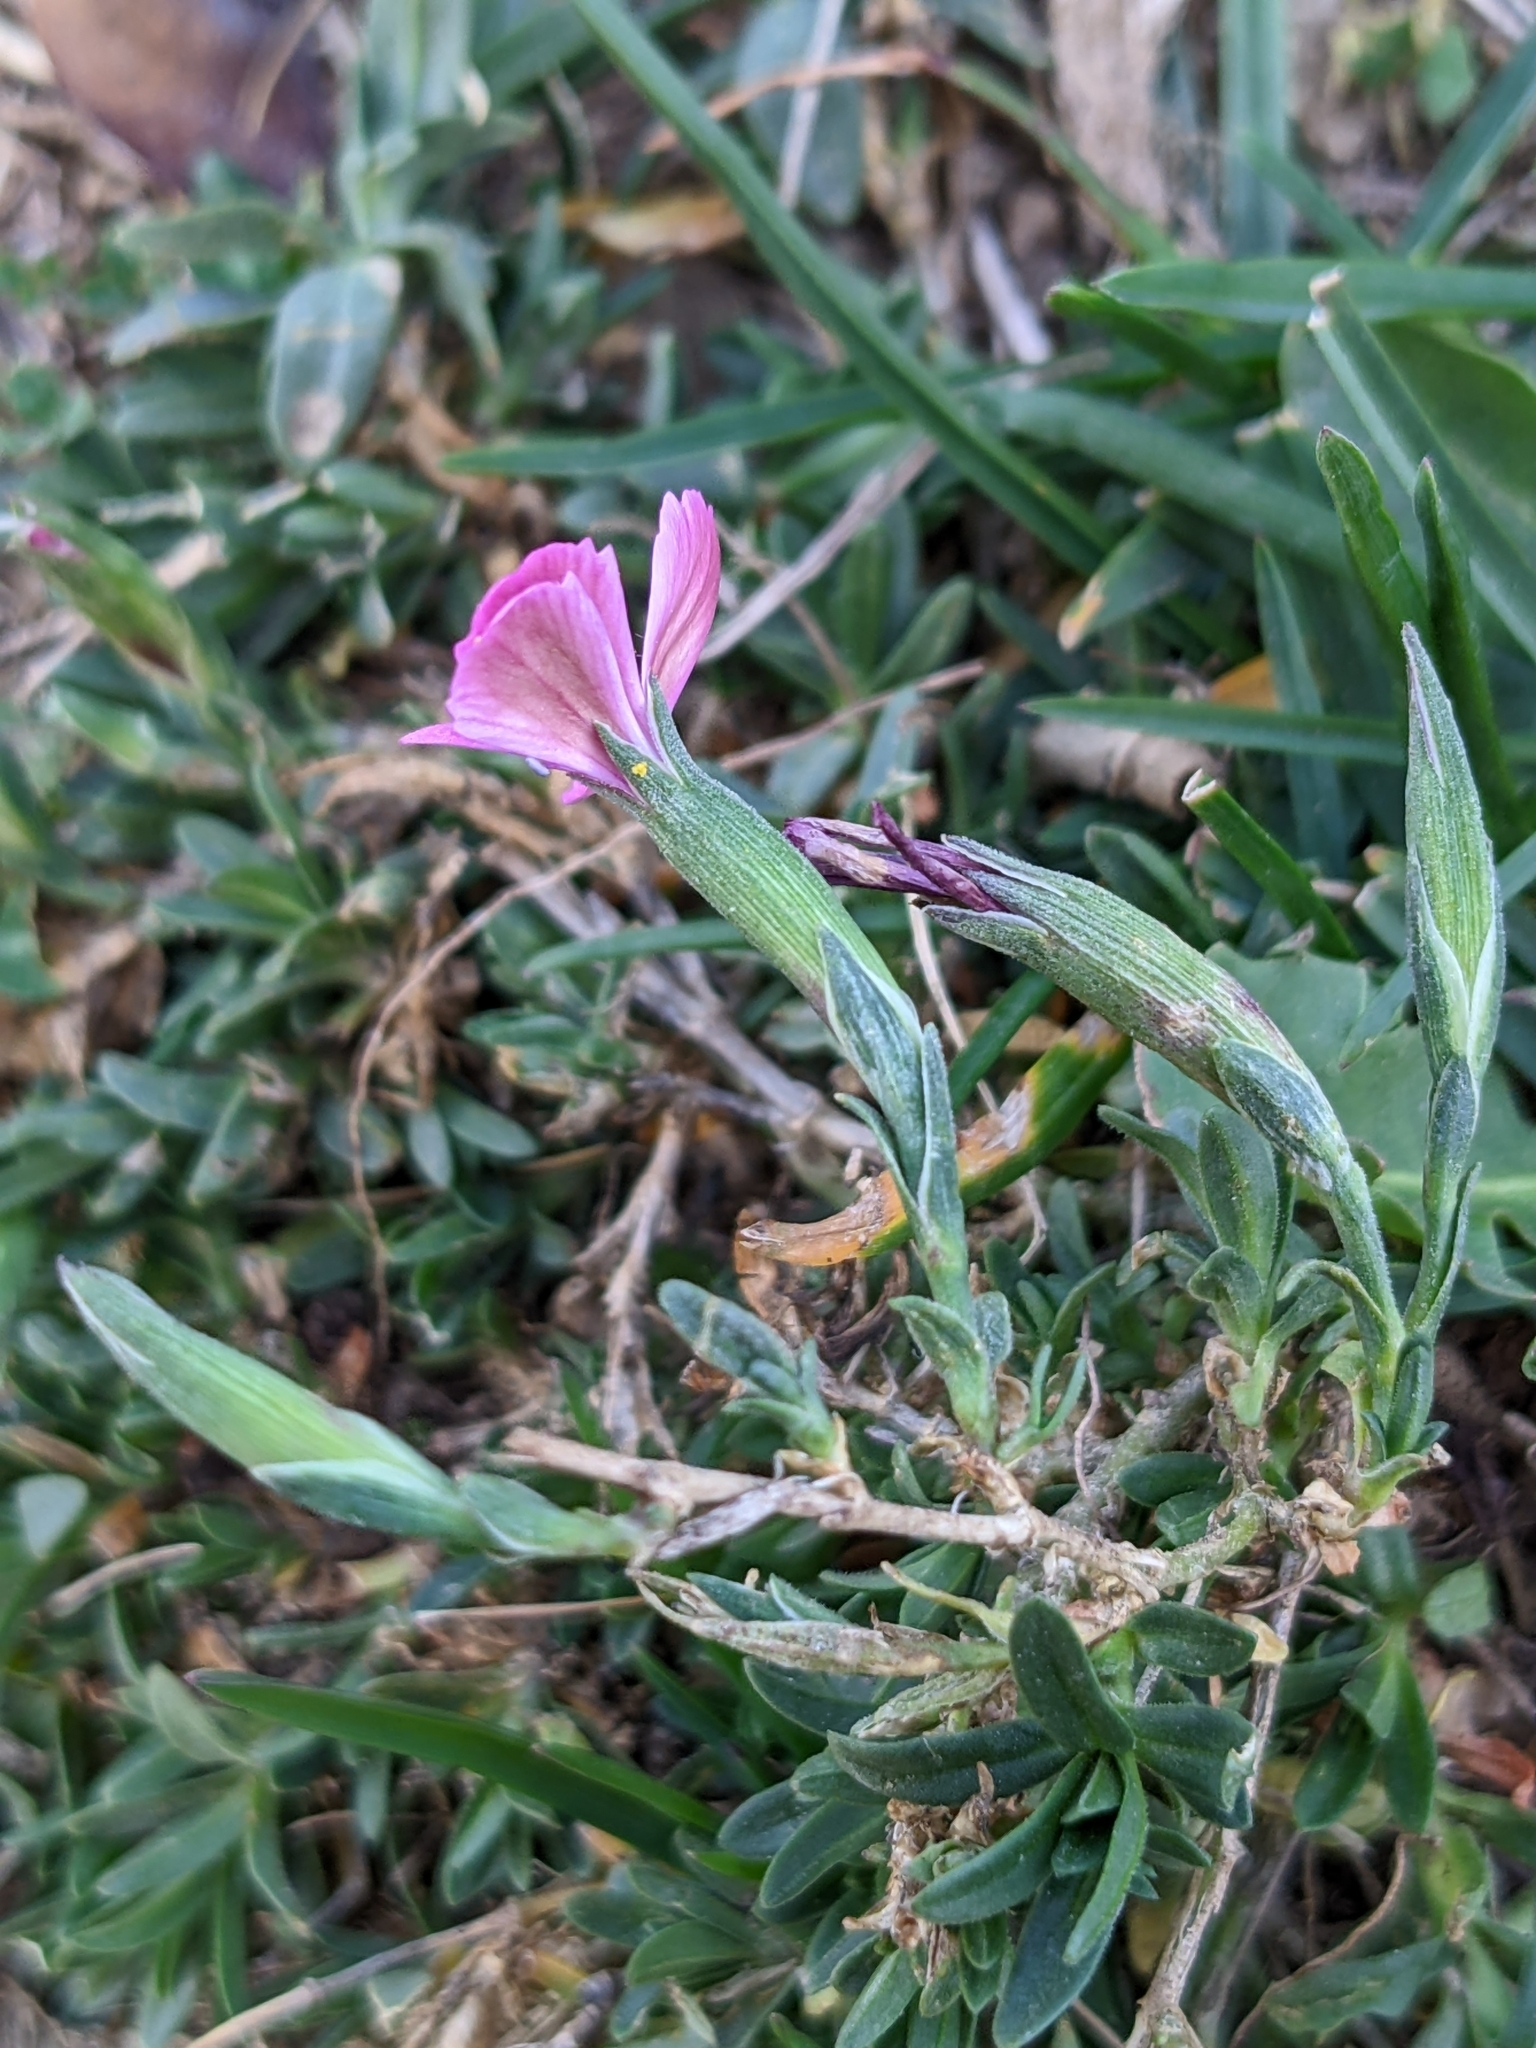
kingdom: Plantae
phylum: Tracheophyta
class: Magnoliopsida
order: Caryophyllales
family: Caryophyllaceae
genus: Dianthus
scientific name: Dianthus deltoides
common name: Maiden pink
